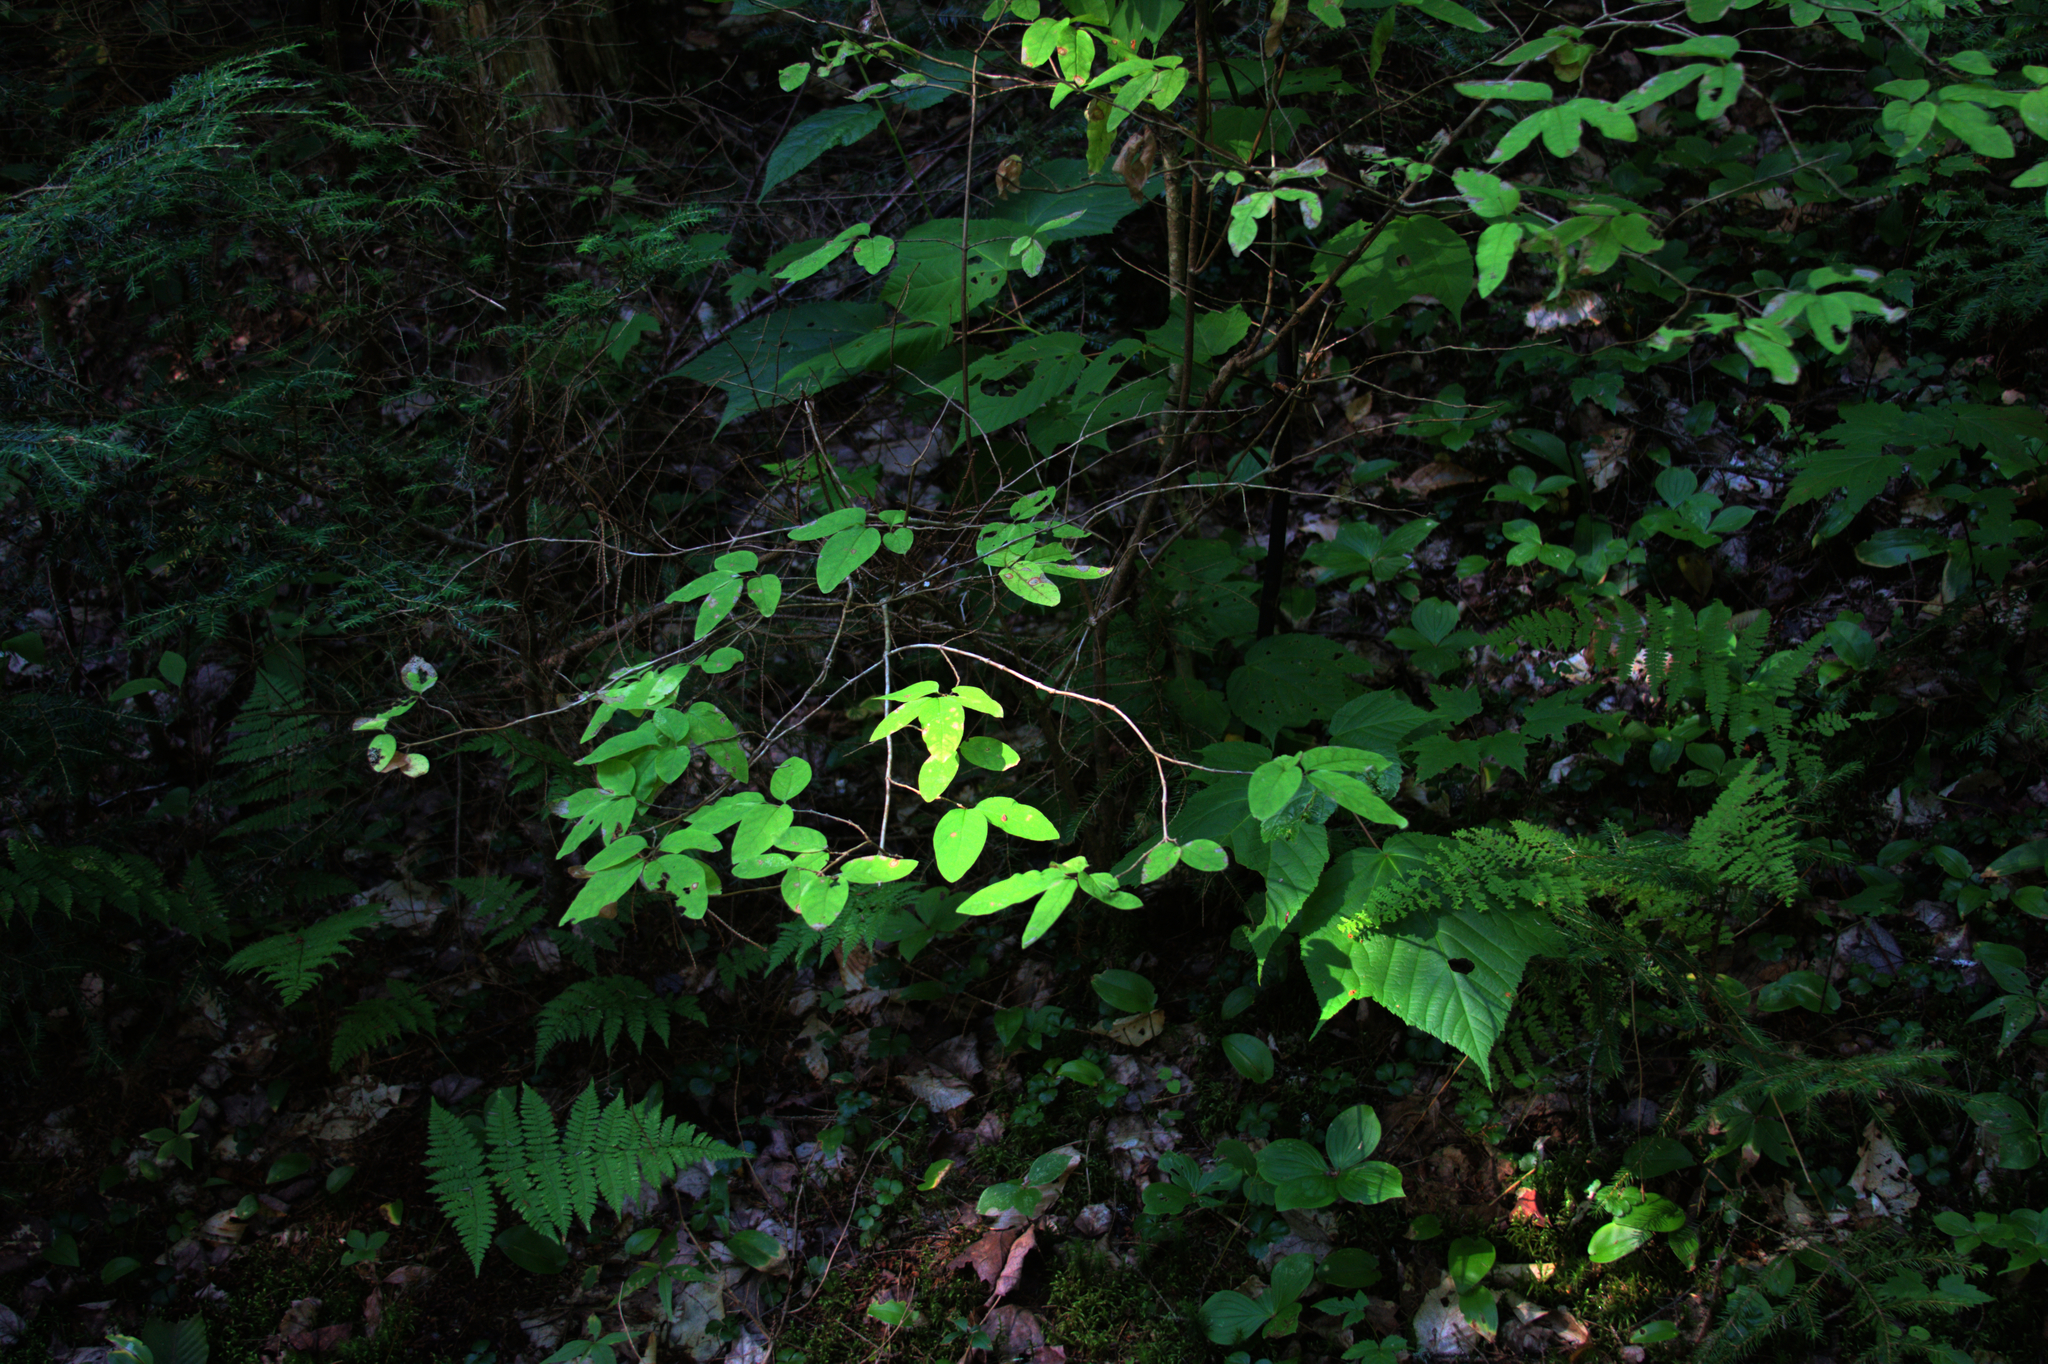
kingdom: Plantae
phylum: Tracheophyta
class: Magnoliopsida
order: Dipsacales
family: Caprifoliaceae
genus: Lonicera
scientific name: Lonicera canadensis
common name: American fly-honeysuckle
